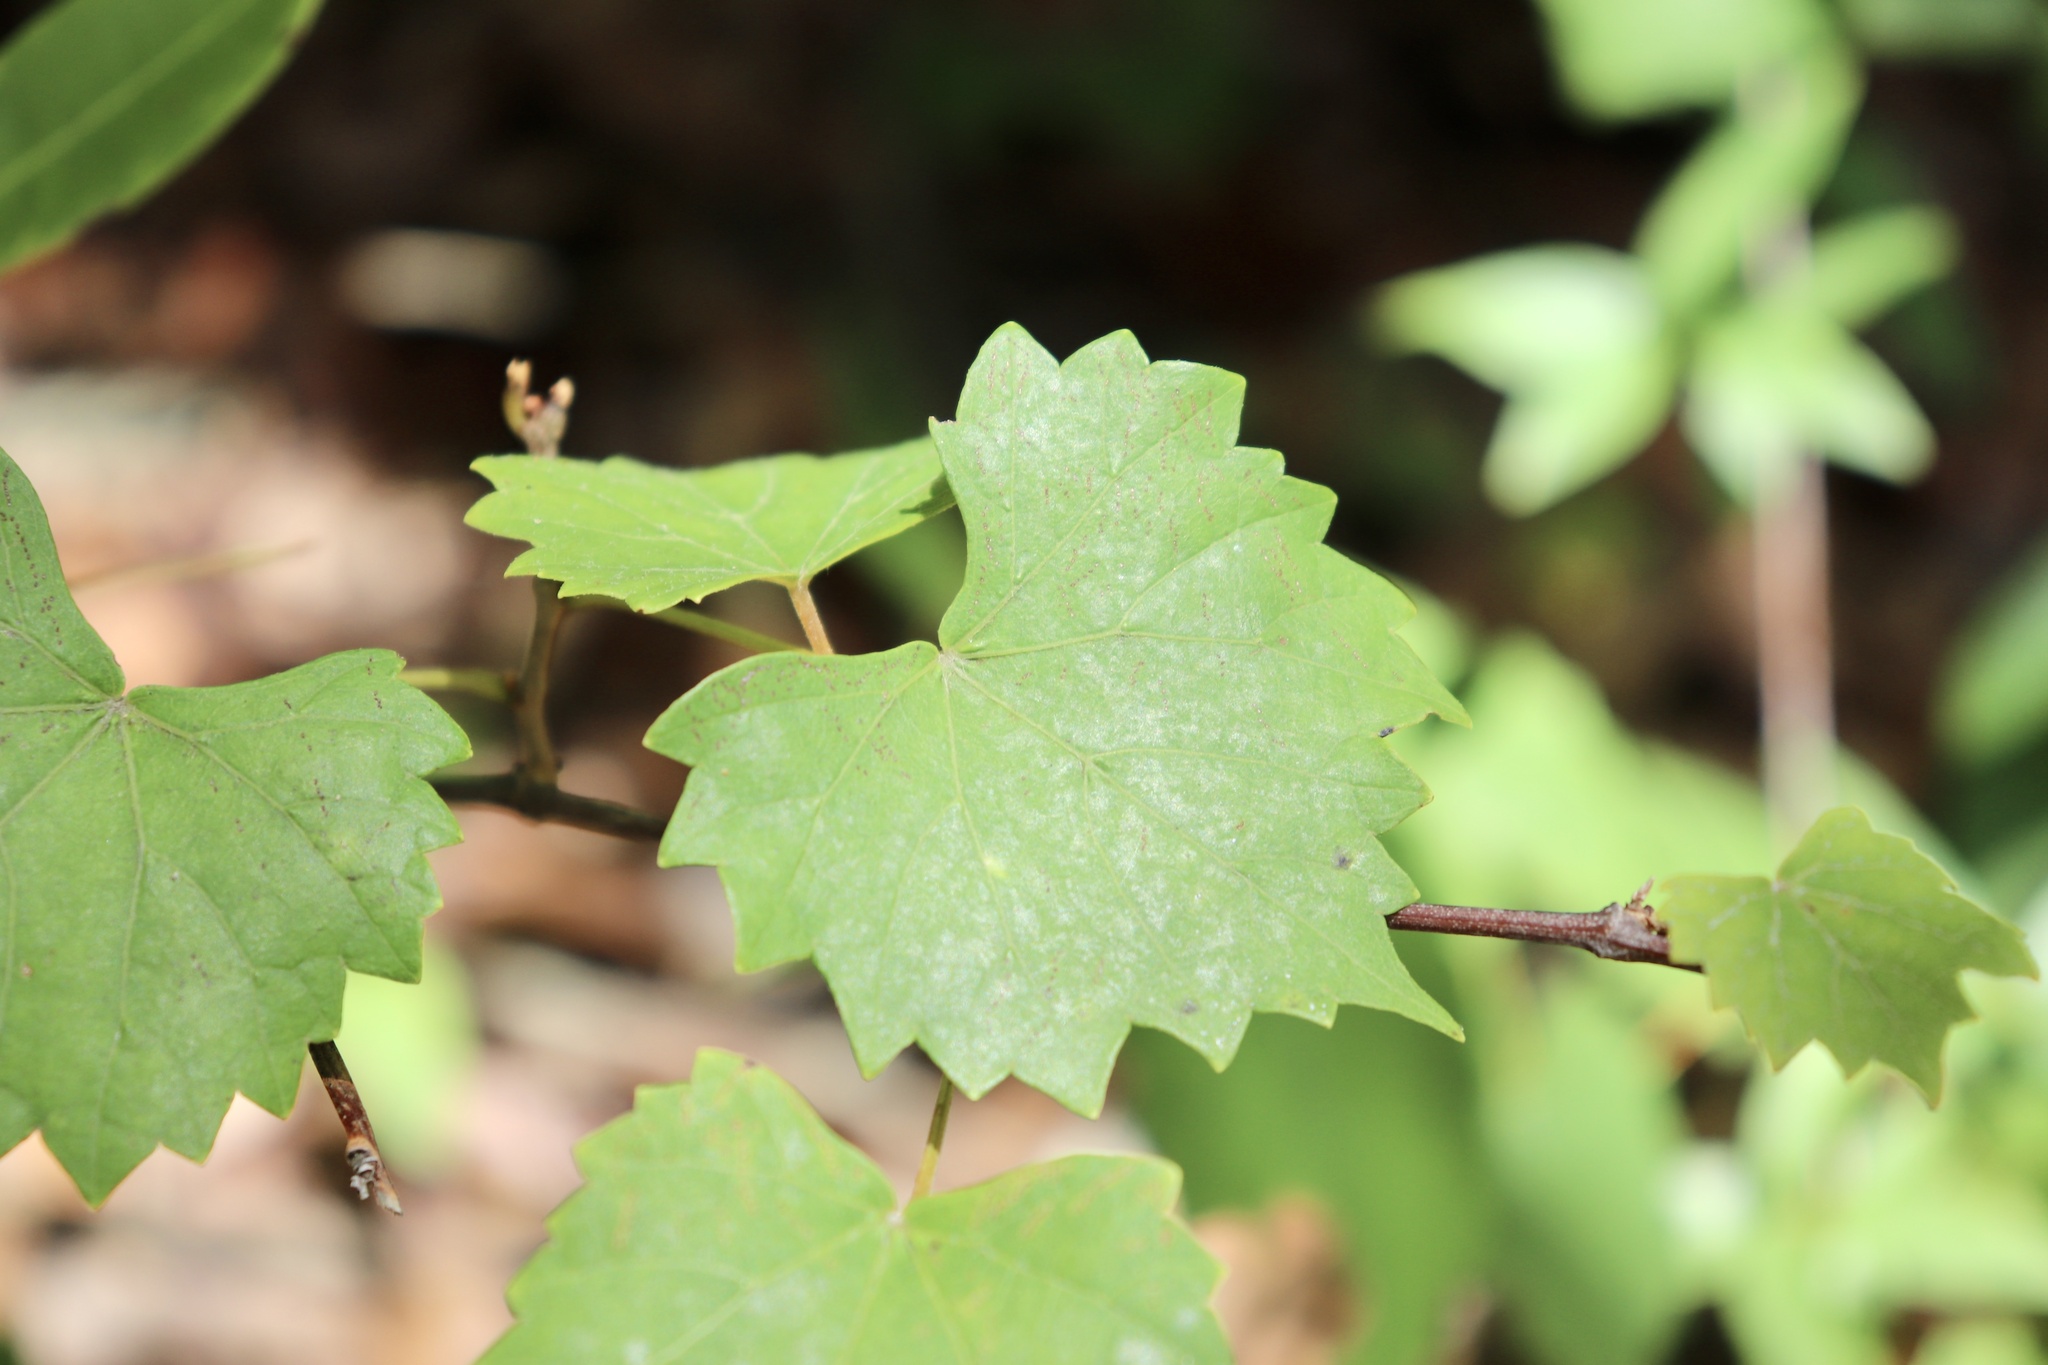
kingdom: Plantae
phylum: Tracheophyta
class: Magnoliopsida
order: Vitales
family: Vitaceae
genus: Vitis
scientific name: Vitis rotundifolia
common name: Muscadine grape
